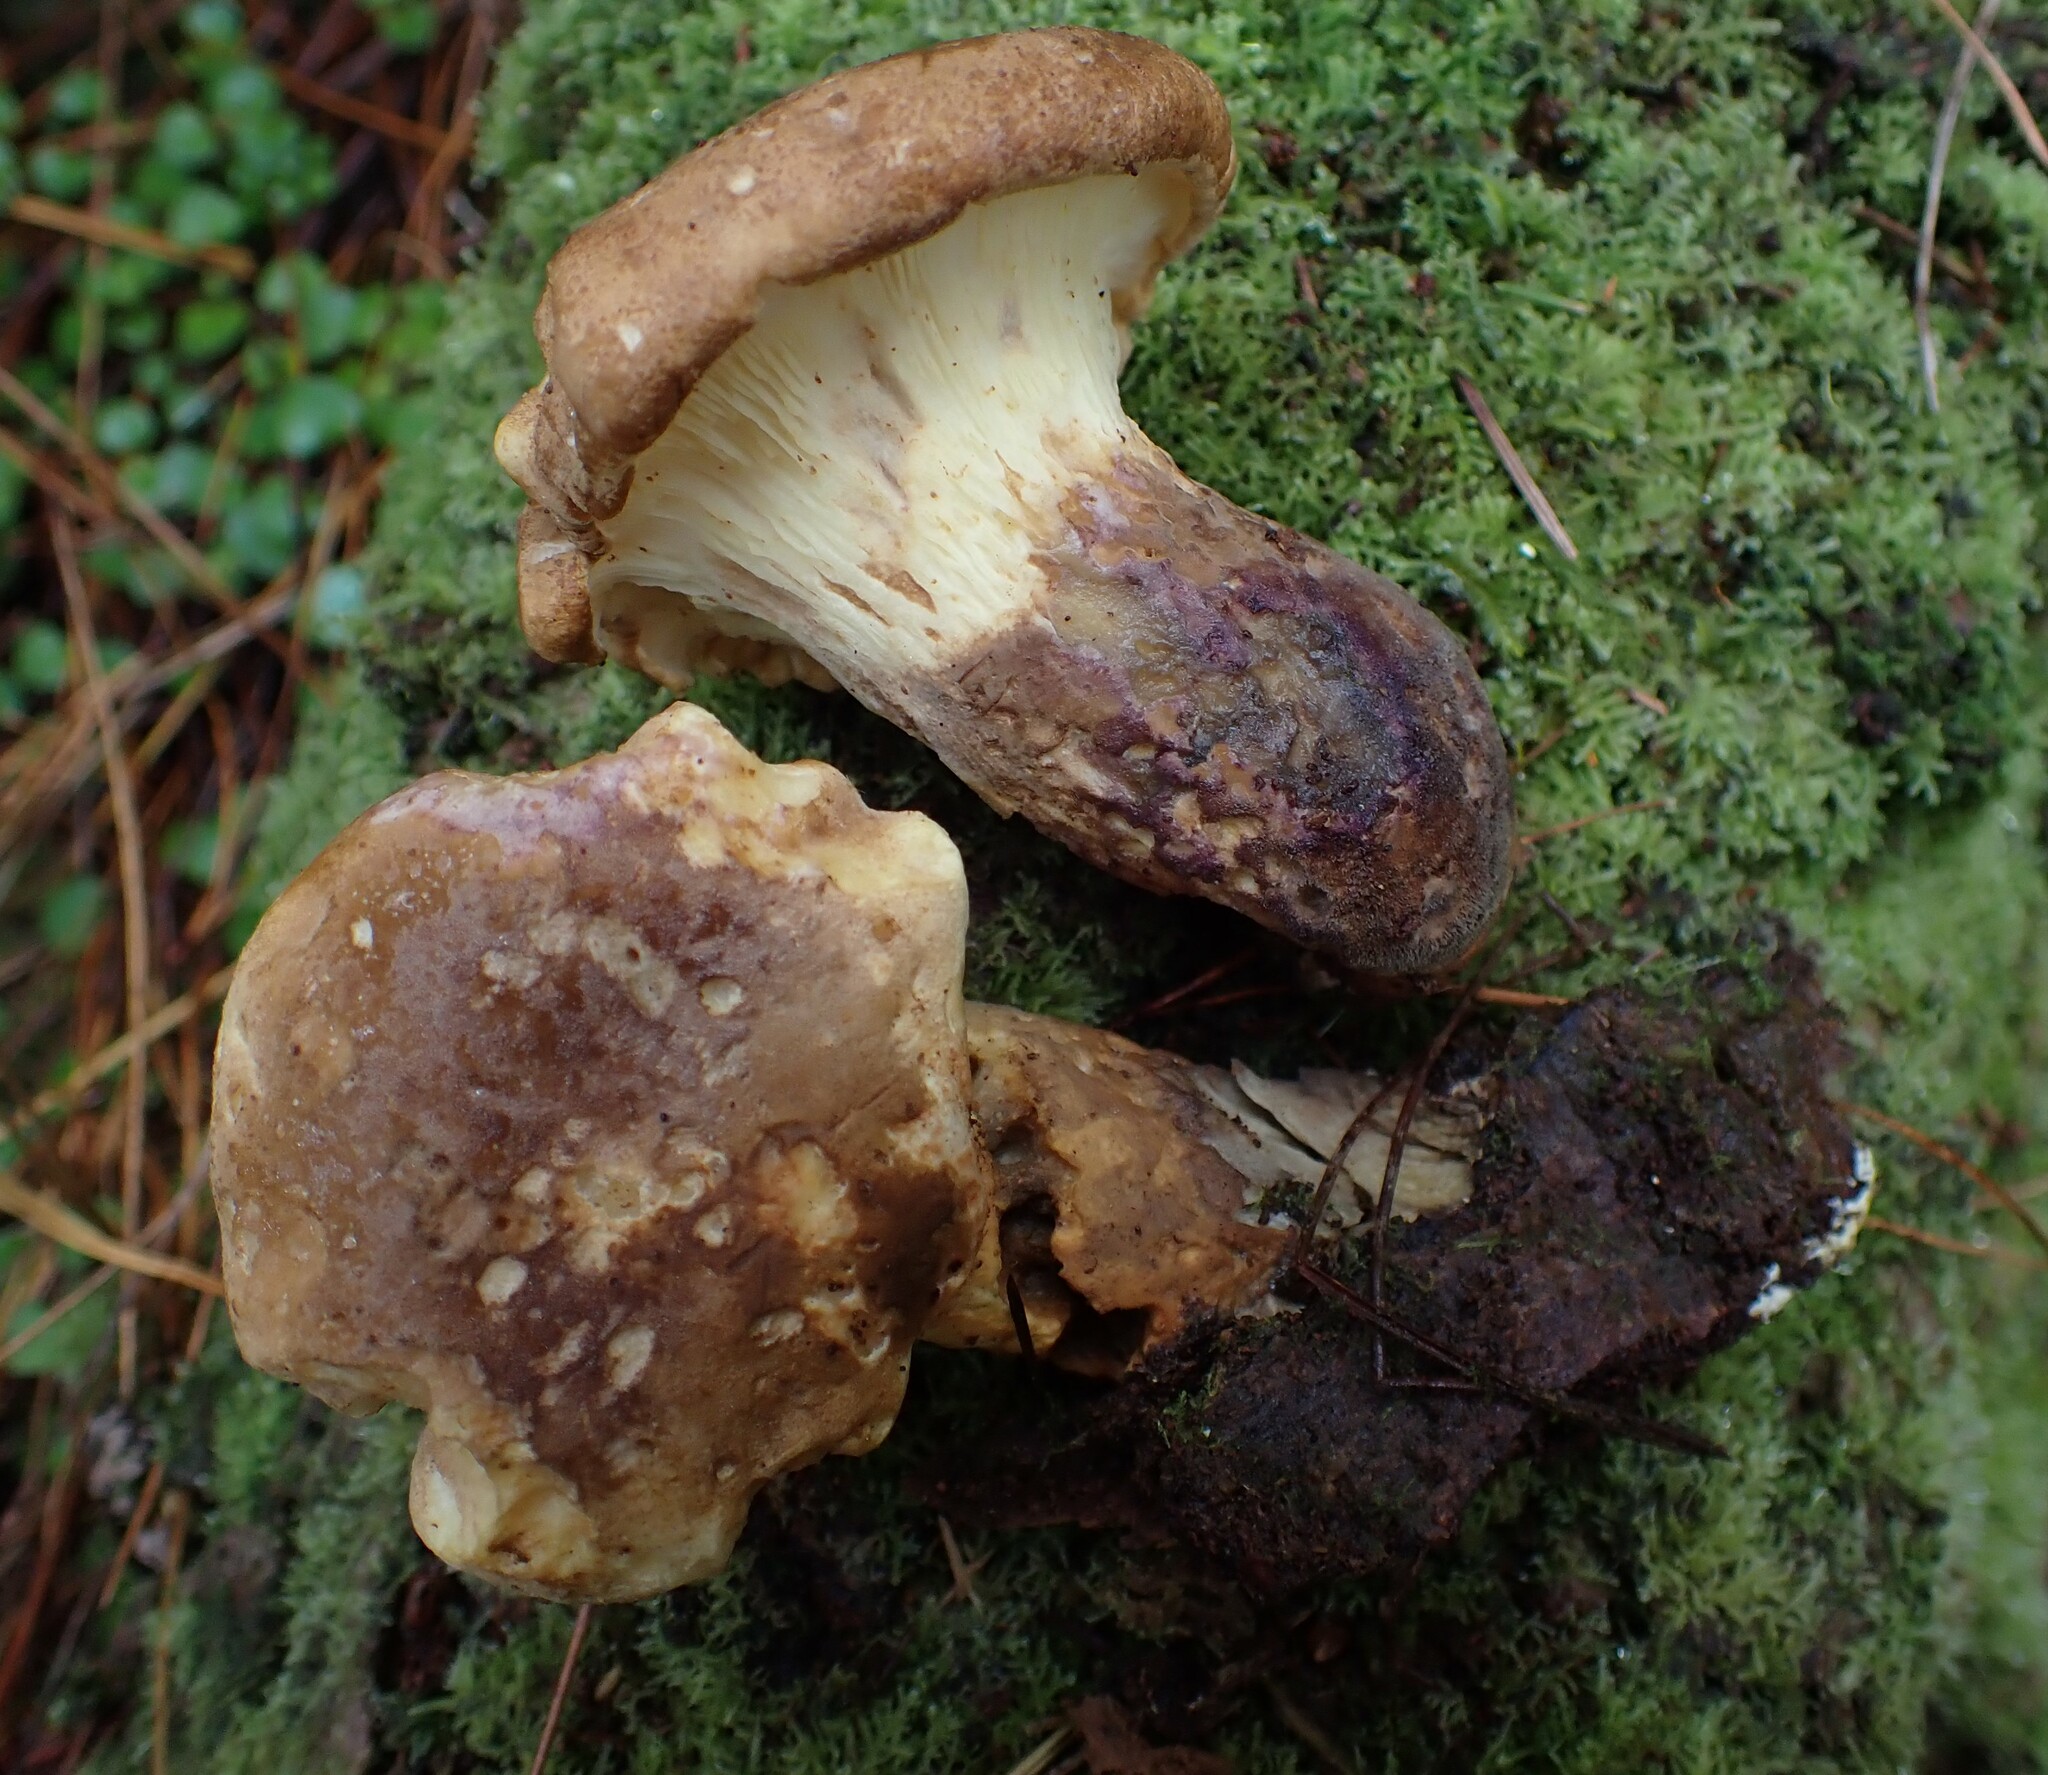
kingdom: Fungi
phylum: Basidiomycota
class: Agaricomycetes
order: Boletales
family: Tapinellaceae
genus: Tapinella
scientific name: Tapinella atrotomentosa
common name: Velvet rollrim
